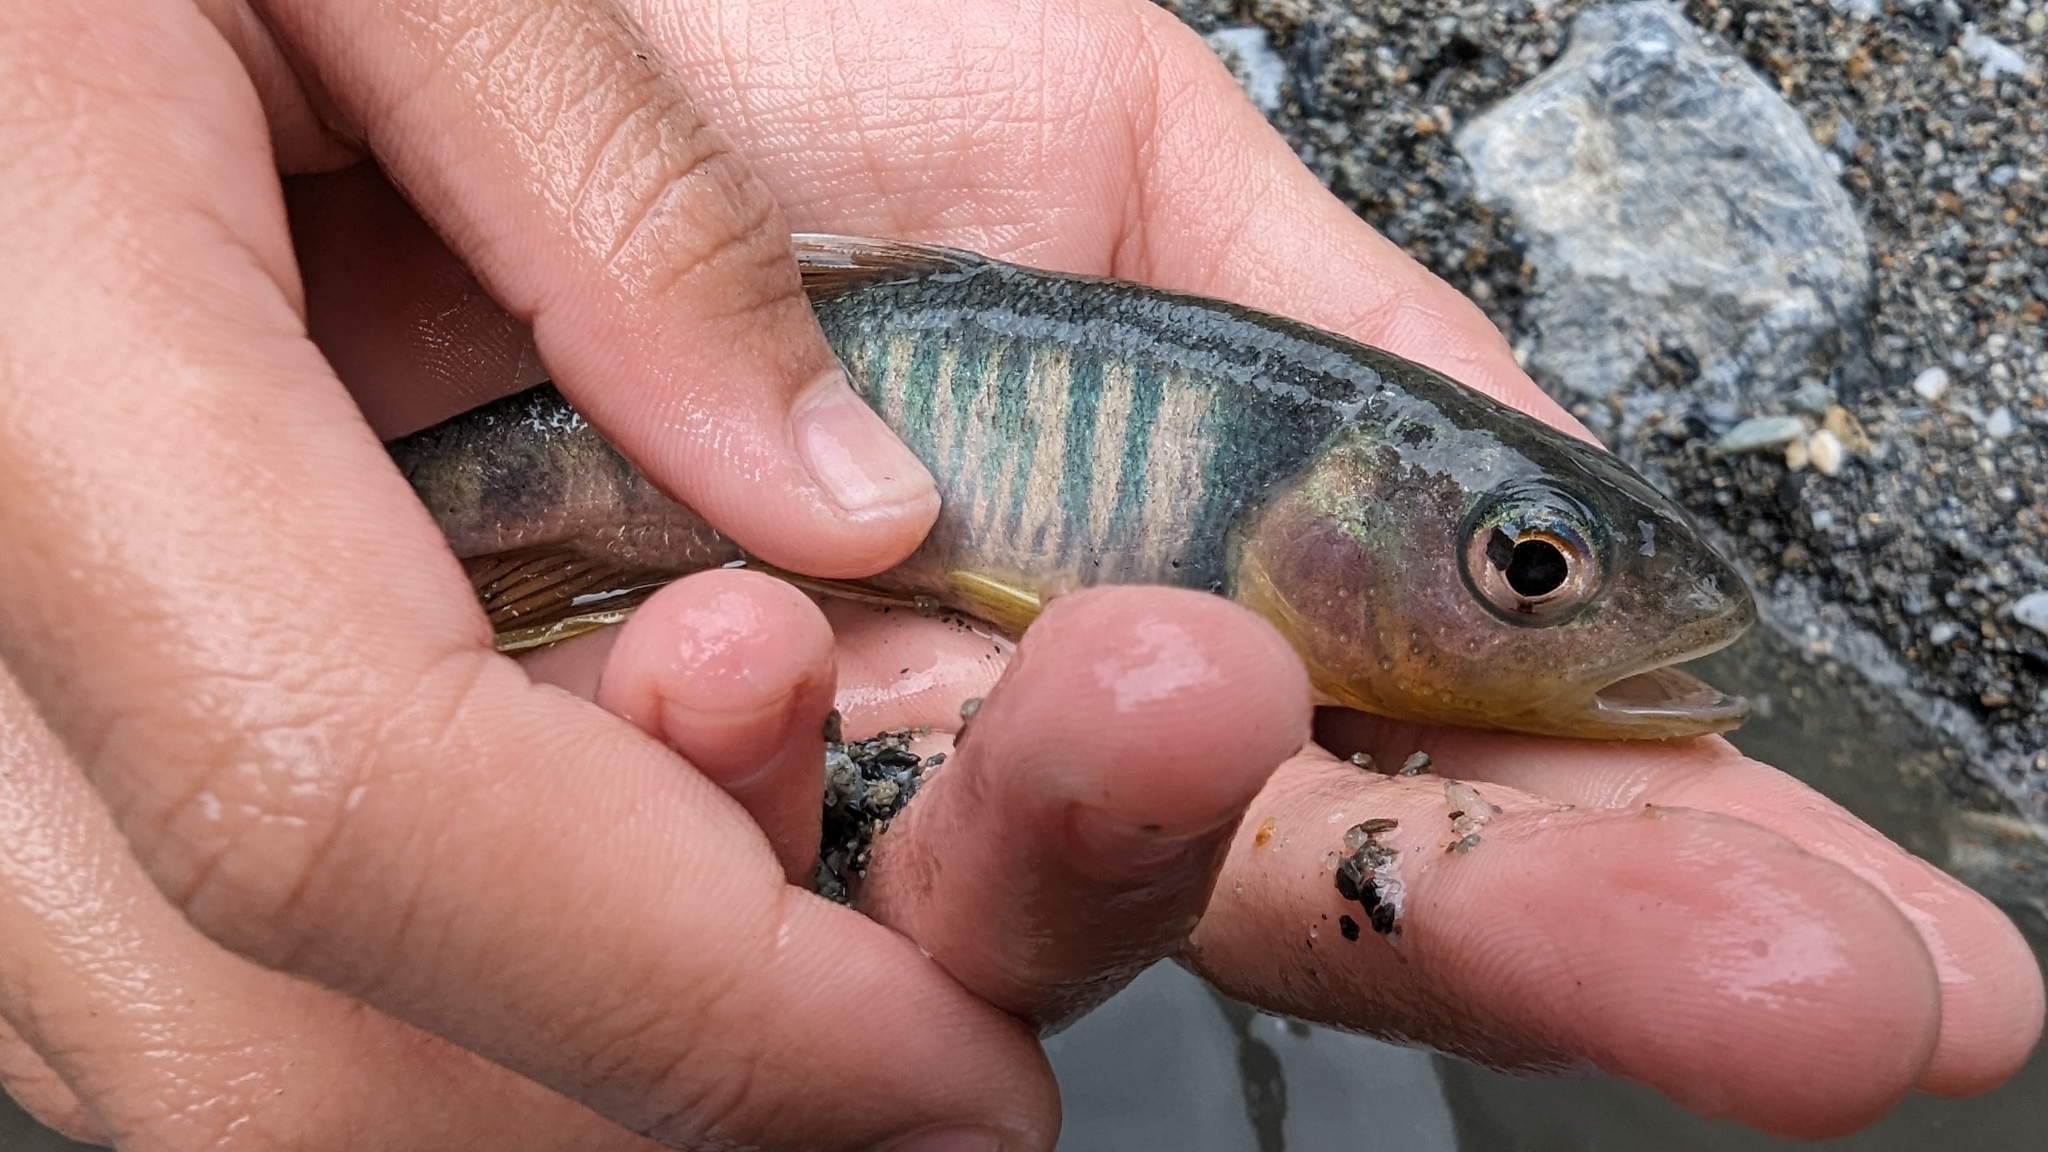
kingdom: Animalia
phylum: Chordata
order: Cypriniformes
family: Cyprinidae
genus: Opsariichthys
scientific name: Opsariichthys pachycephalus
